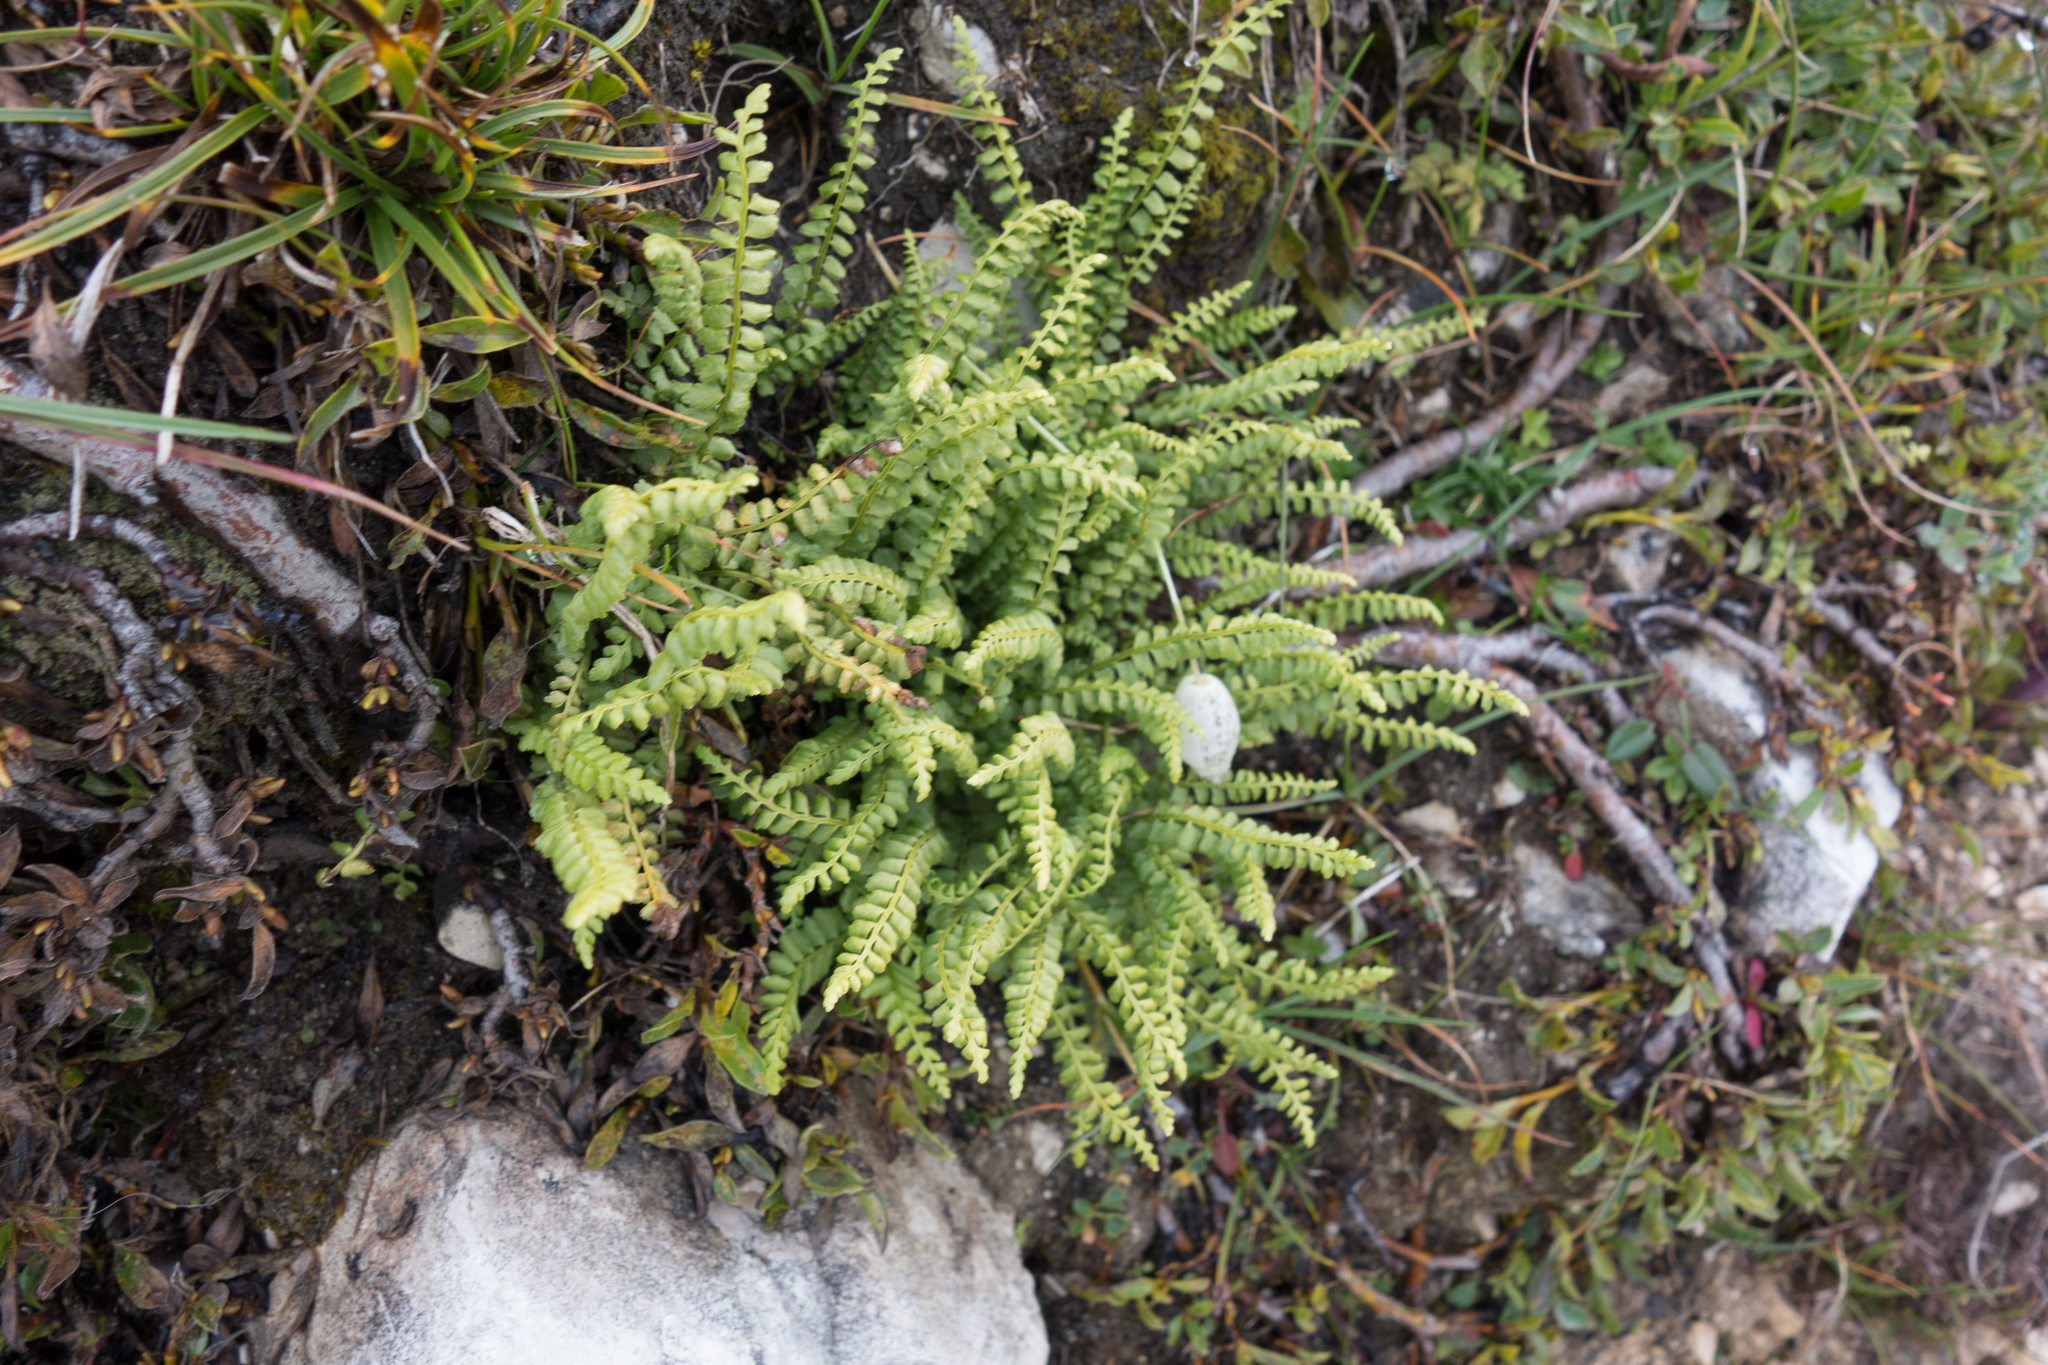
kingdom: Plantae
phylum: Tracheophyta
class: Polypodiopsida
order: Polypodiales
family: Aspleniaceae
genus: Asplenium
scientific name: Asplenium viride
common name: Green spleenwort
